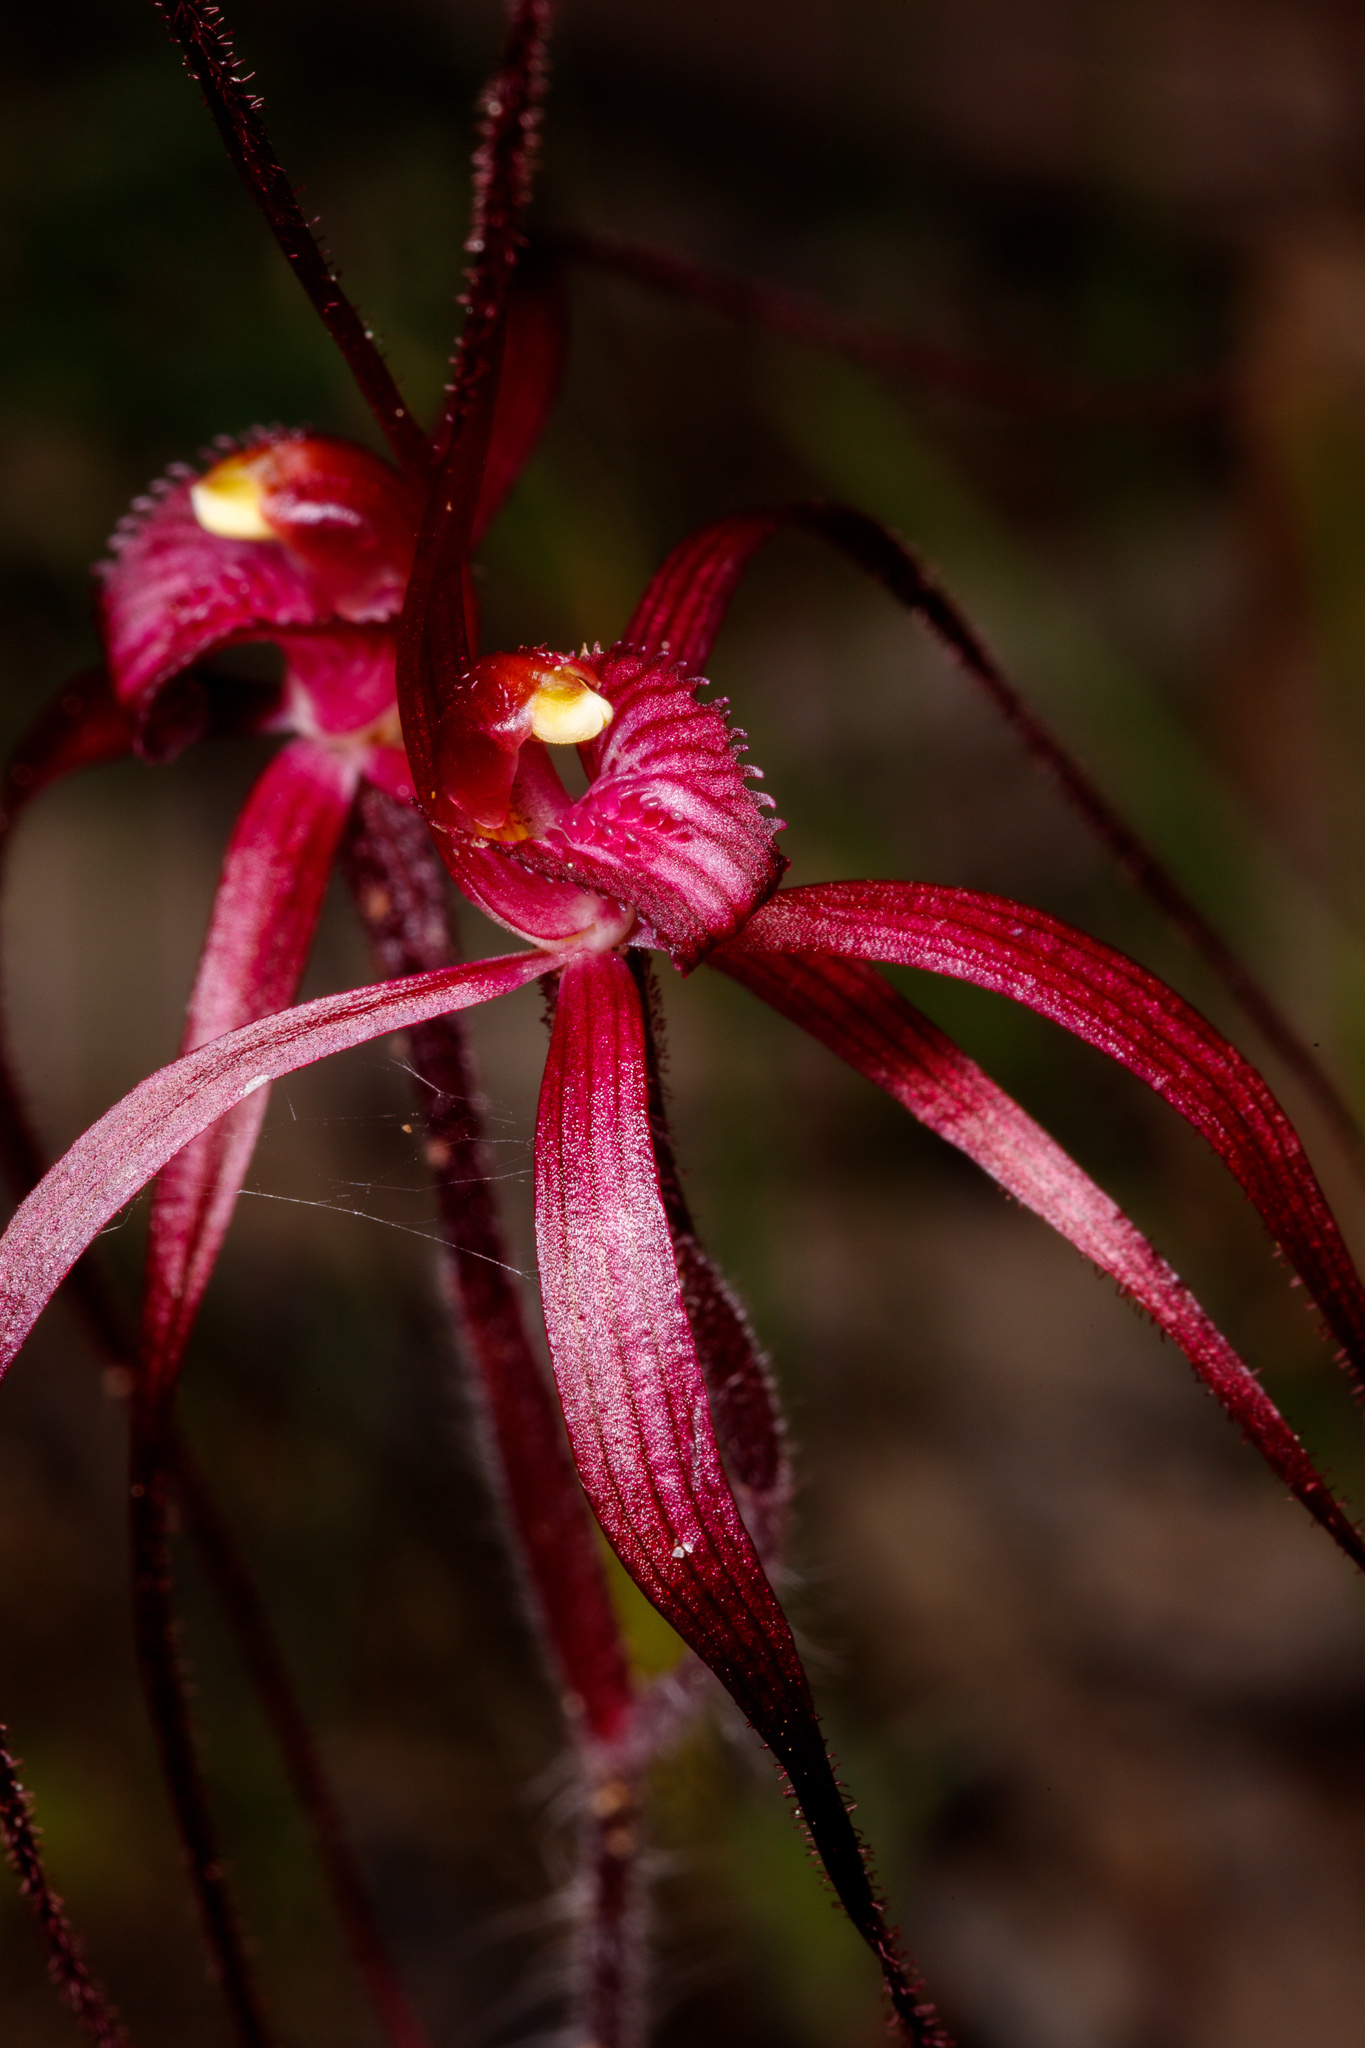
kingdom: Plantae
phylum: Tracheophyta
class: Liliopsida
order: Asparagales
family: Orchidaceae
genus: Caladenia
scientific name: Caladenia filifera
